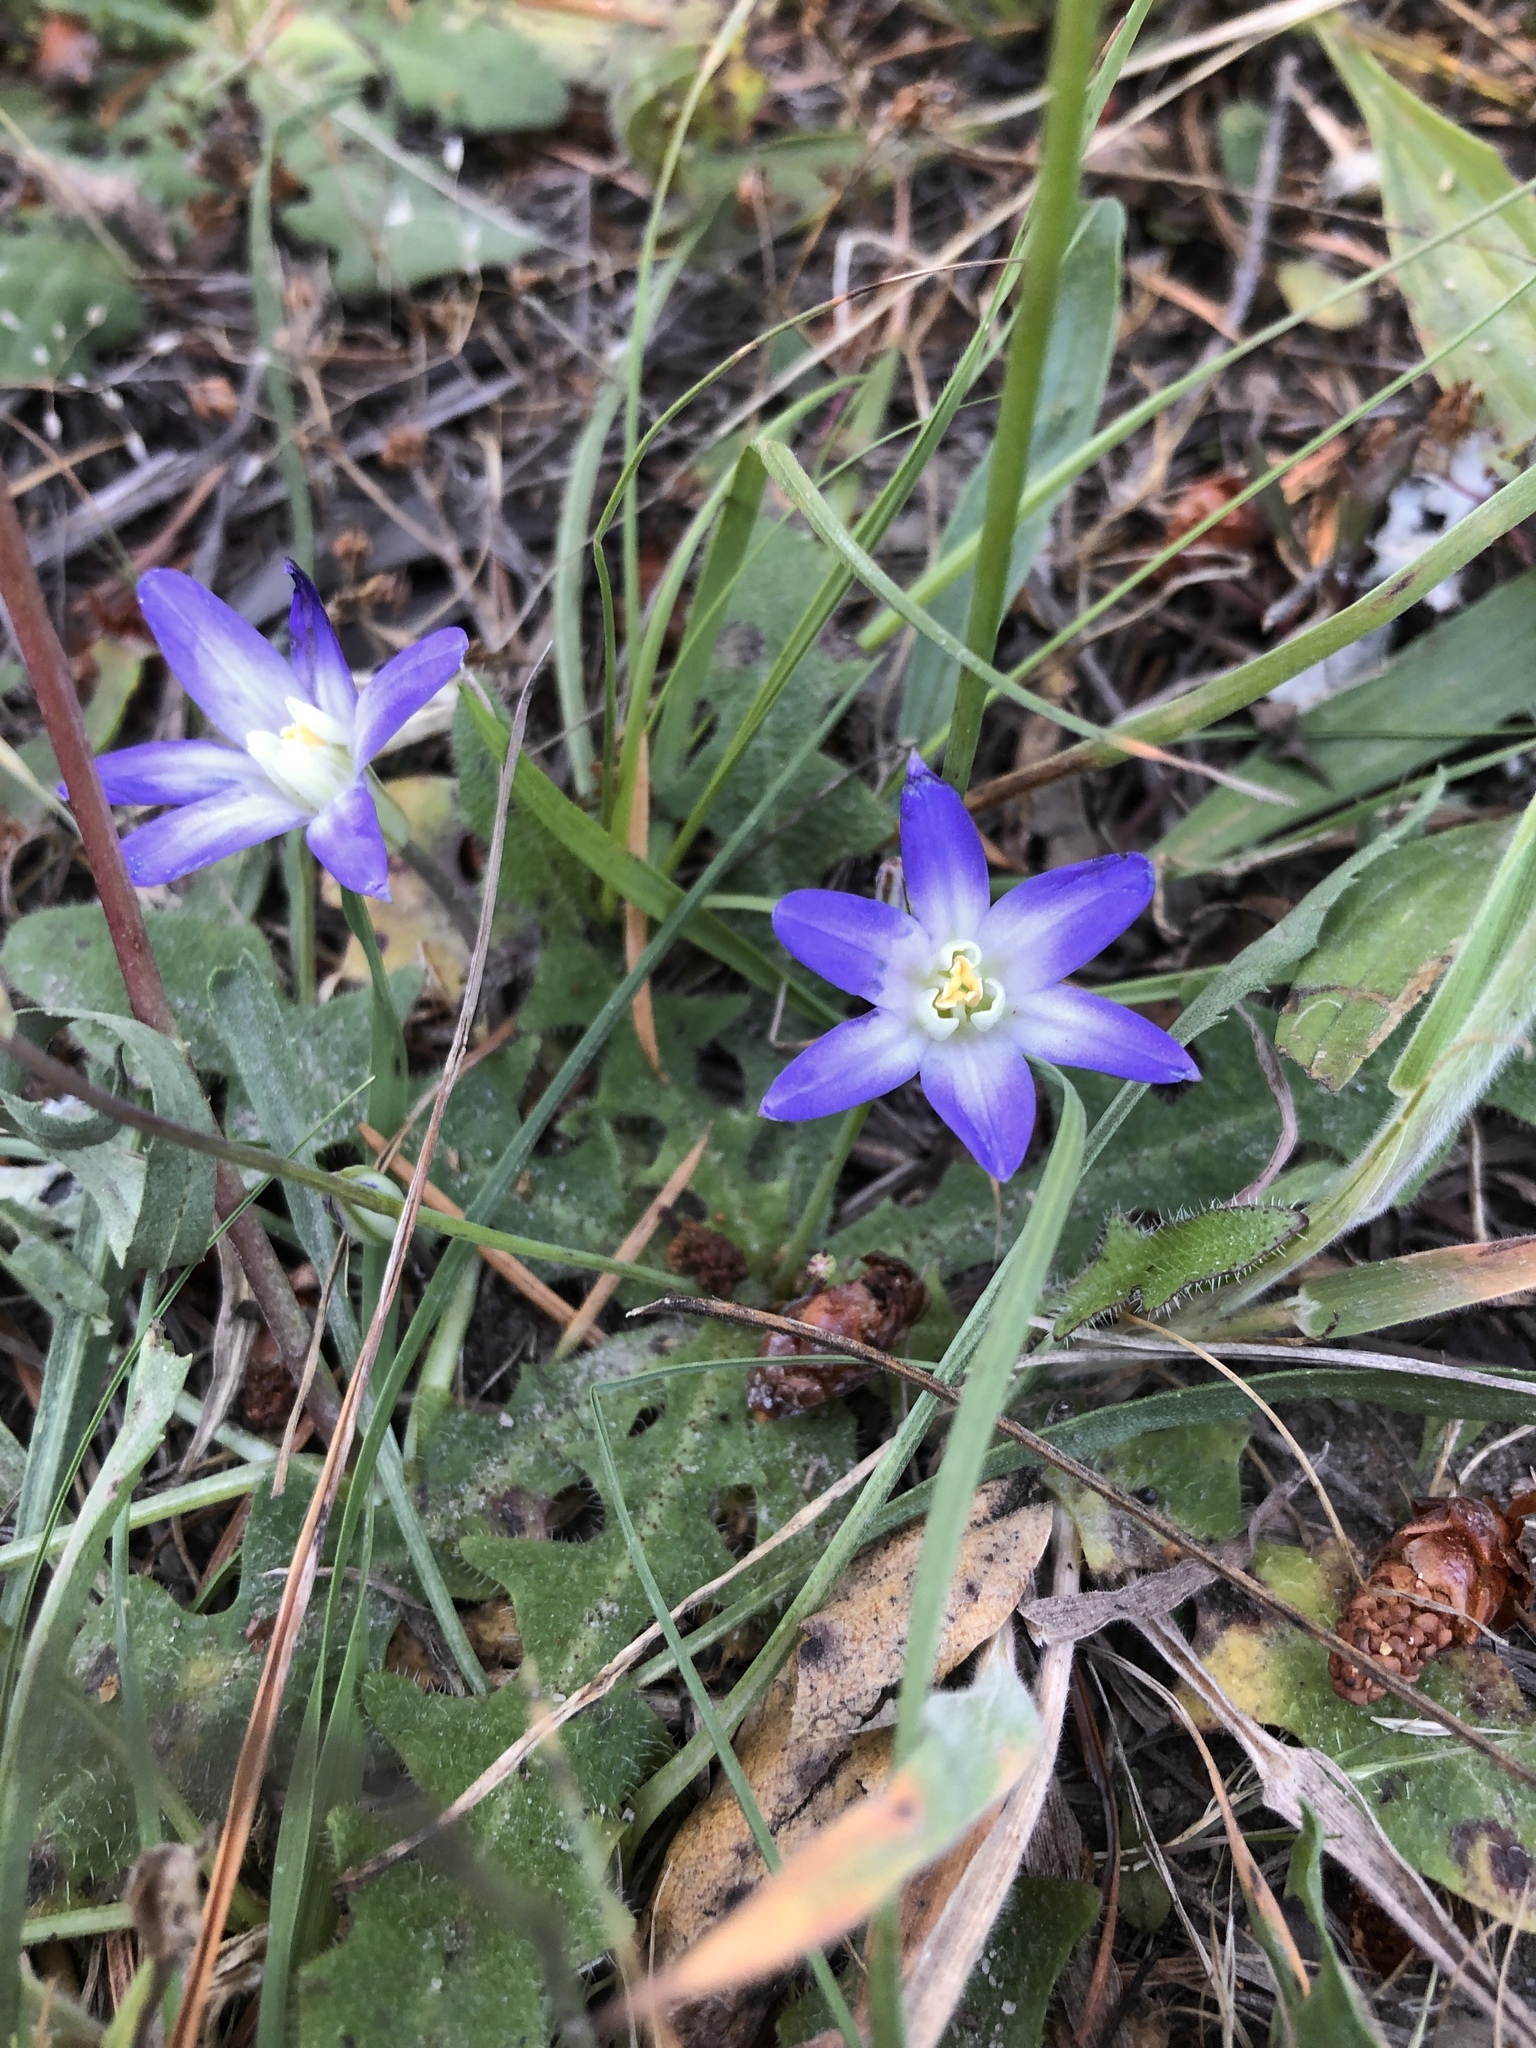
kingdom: Plantae
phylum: Tracheophyta
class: Liliopsida
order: Asparagales
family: Asparagaceae
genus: Brodiaea
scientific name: Brodiaea terrestris
